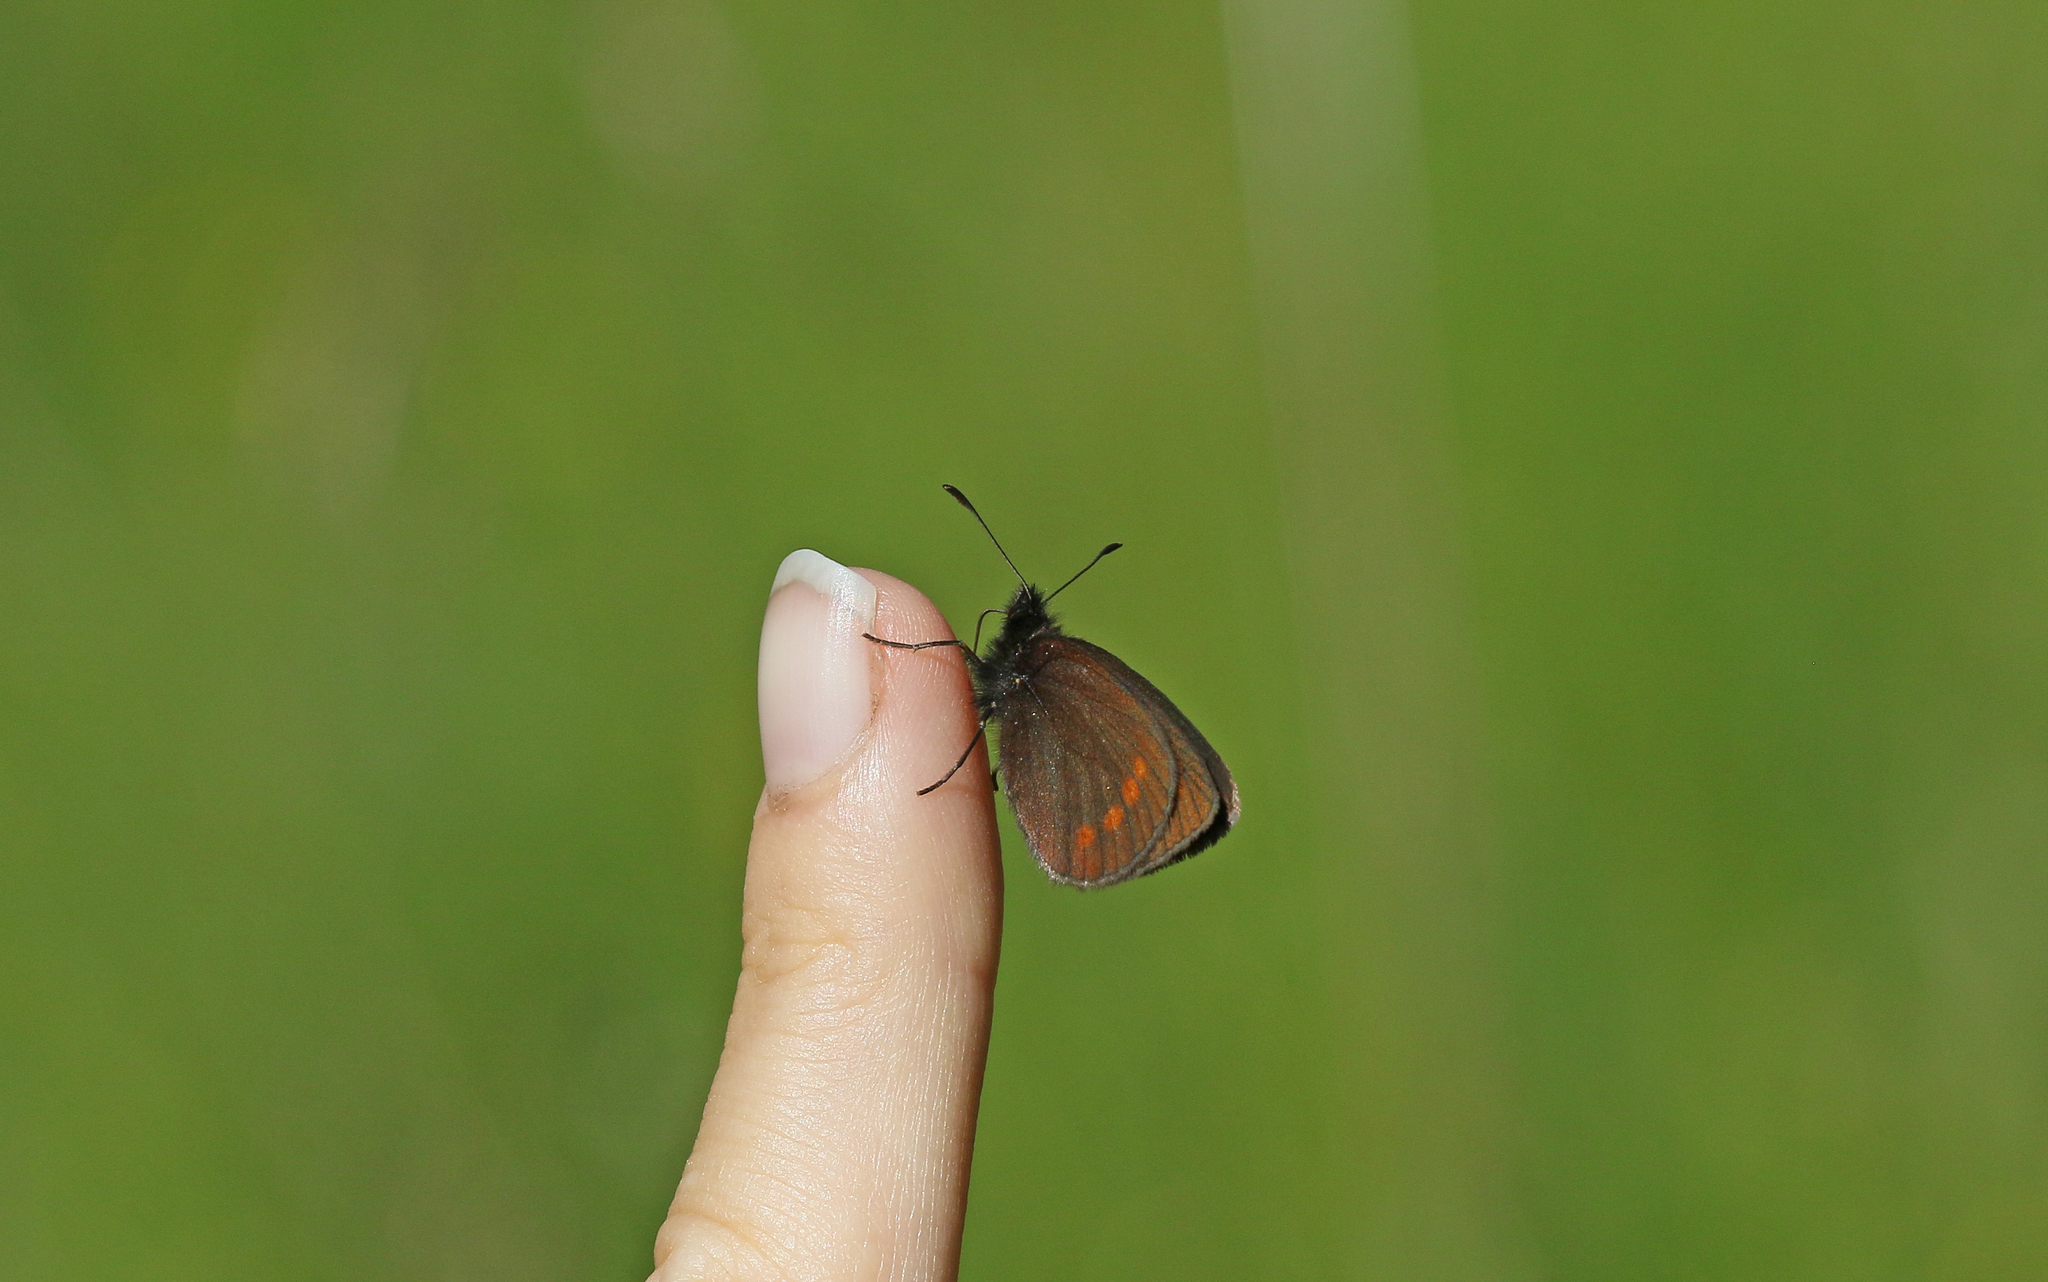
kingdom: Animalia
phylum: Arthropoda
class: Insecta
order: Lepidoptera
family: Nymphalidae
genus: Erebia
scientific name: Erebia
